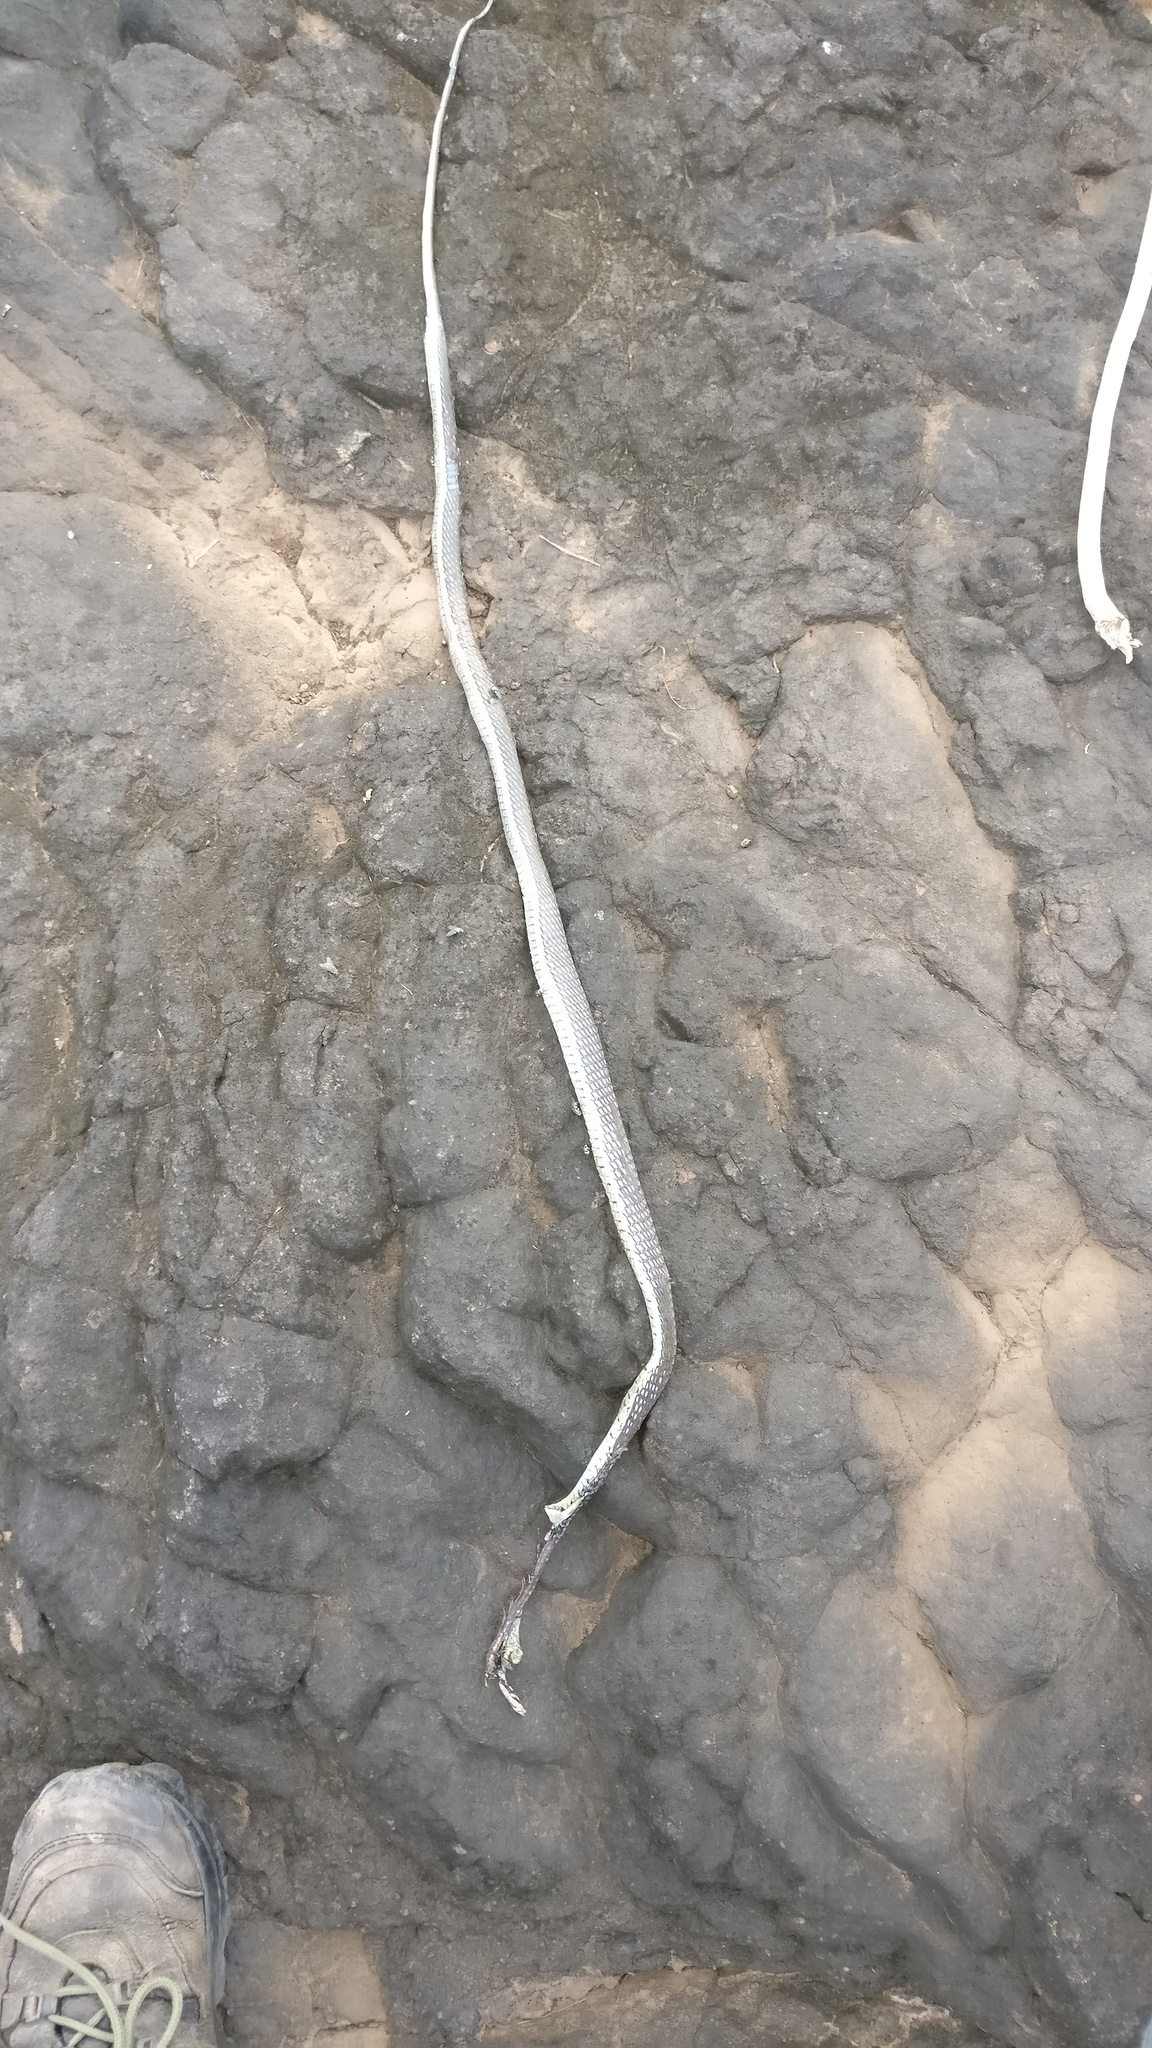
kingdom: Animalia
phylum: Chordata
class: Squamata
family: Colubridae
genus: Dendrelaphis
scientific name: Dendrelaphis tristis
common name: Daudin's bronzeback
